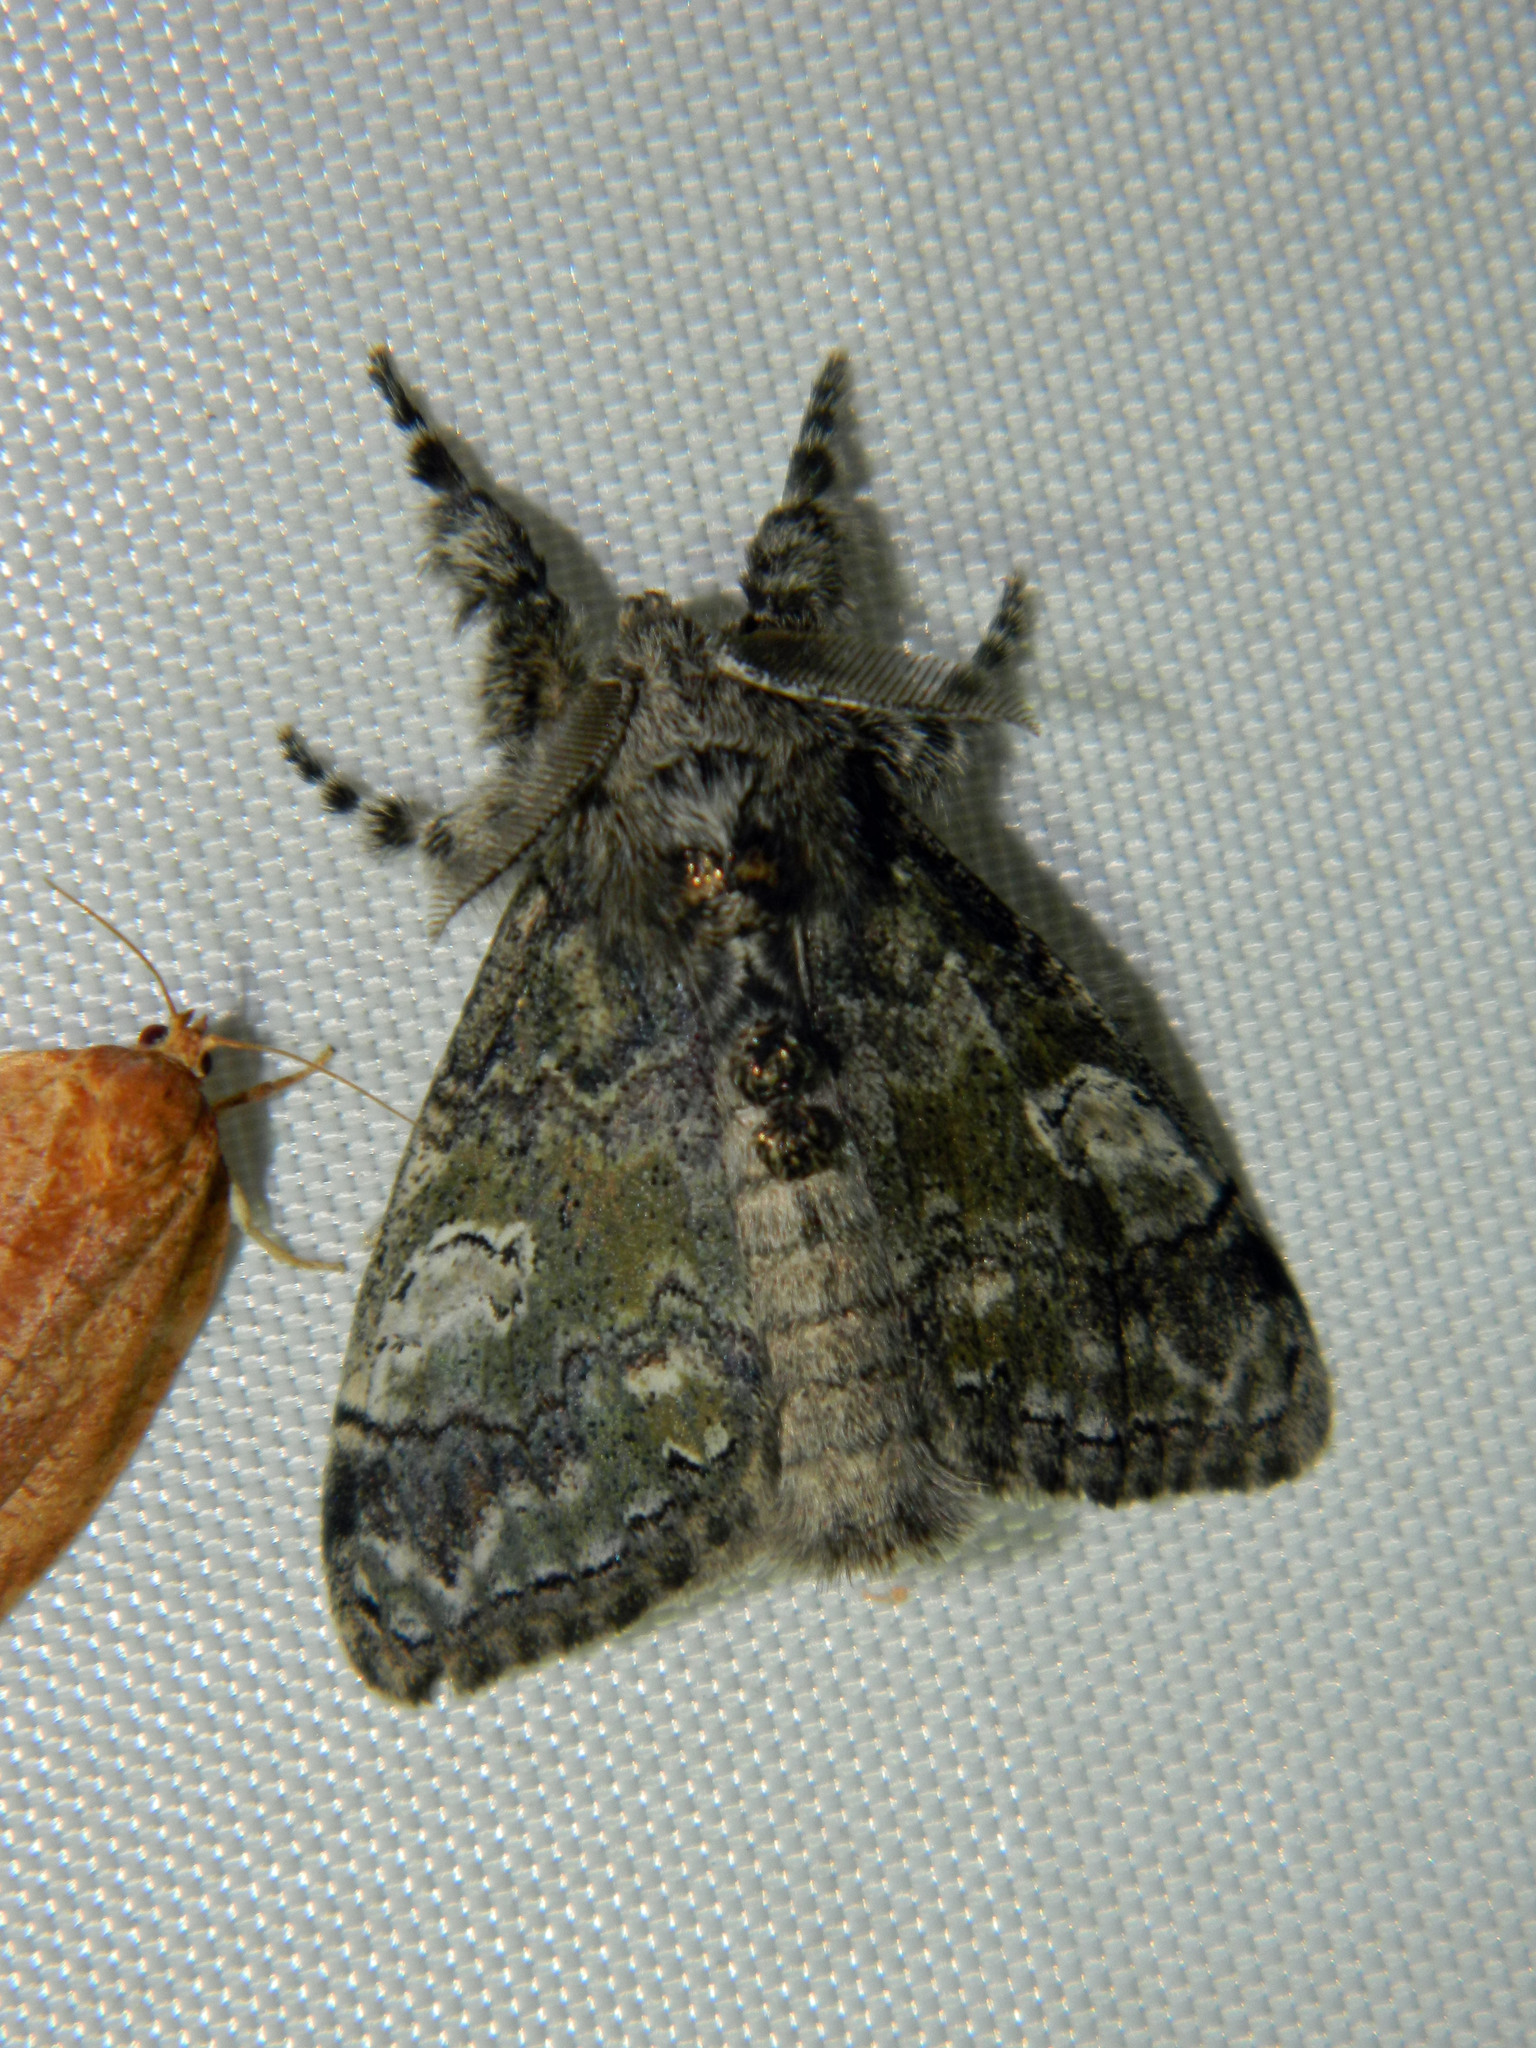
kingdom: Animalia
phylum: Arthropoda
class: Insecta
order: Lepidoptera
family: Erebidae
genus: Dasychira
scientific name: Dasychira vagans
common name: Variable tussock moth
